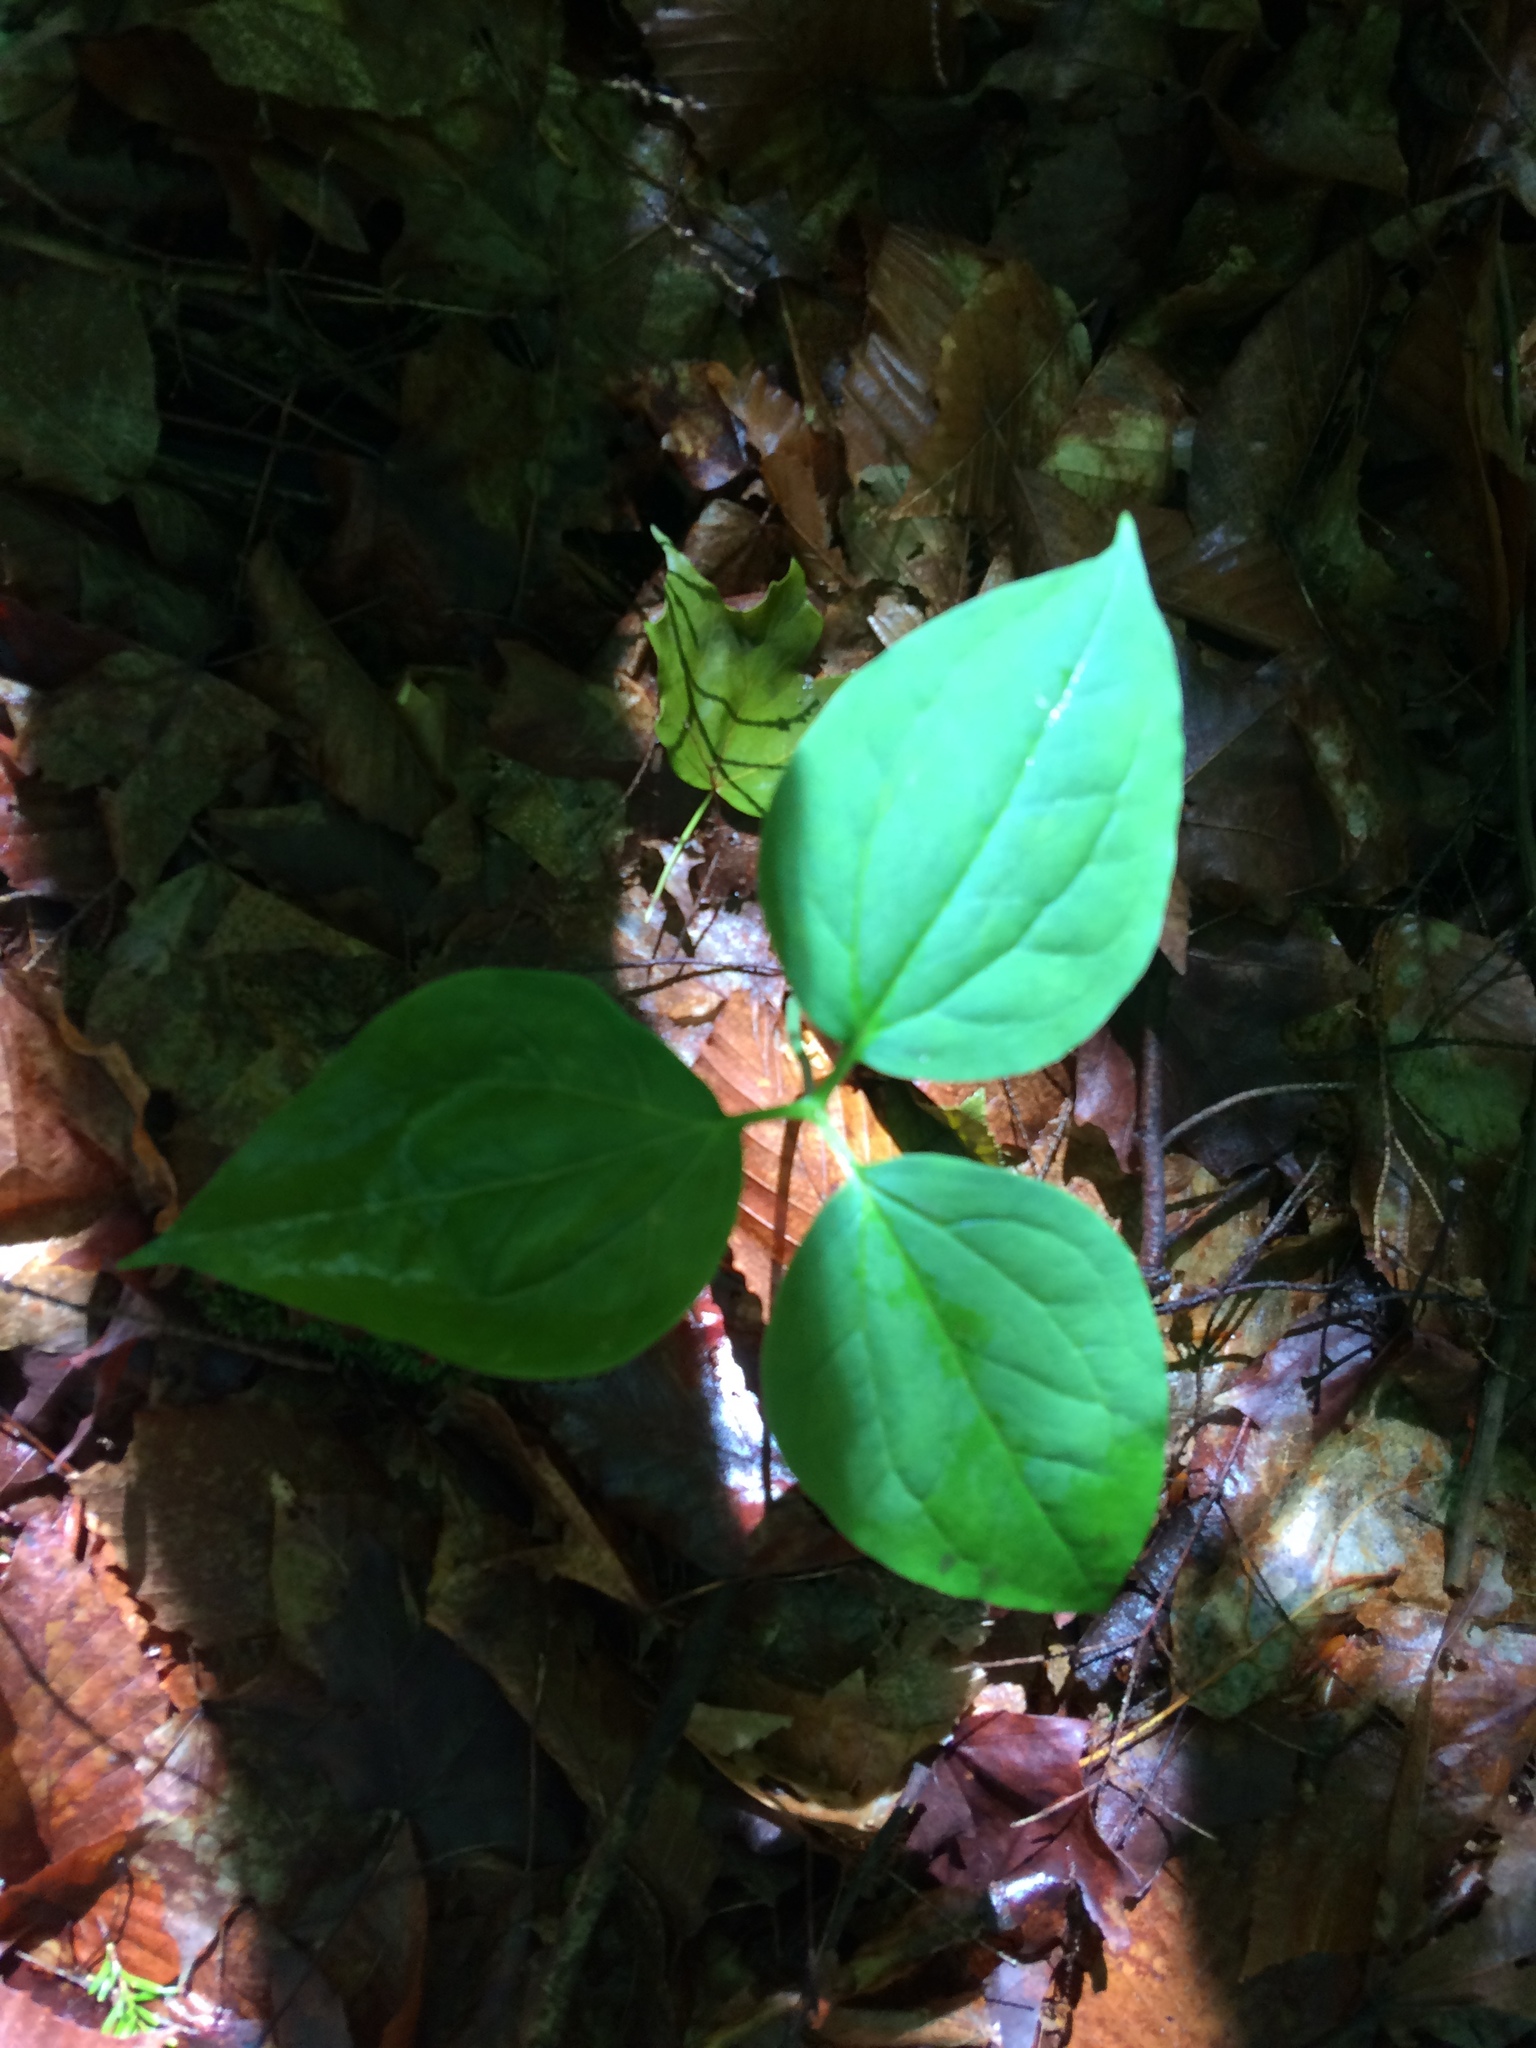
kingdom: Plantae
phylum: Tracheophyta
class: Liliopsida
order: Liliales
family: Melanthiaceae
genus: Trillium
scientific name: Trillium undulatum
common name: Paint trillium
